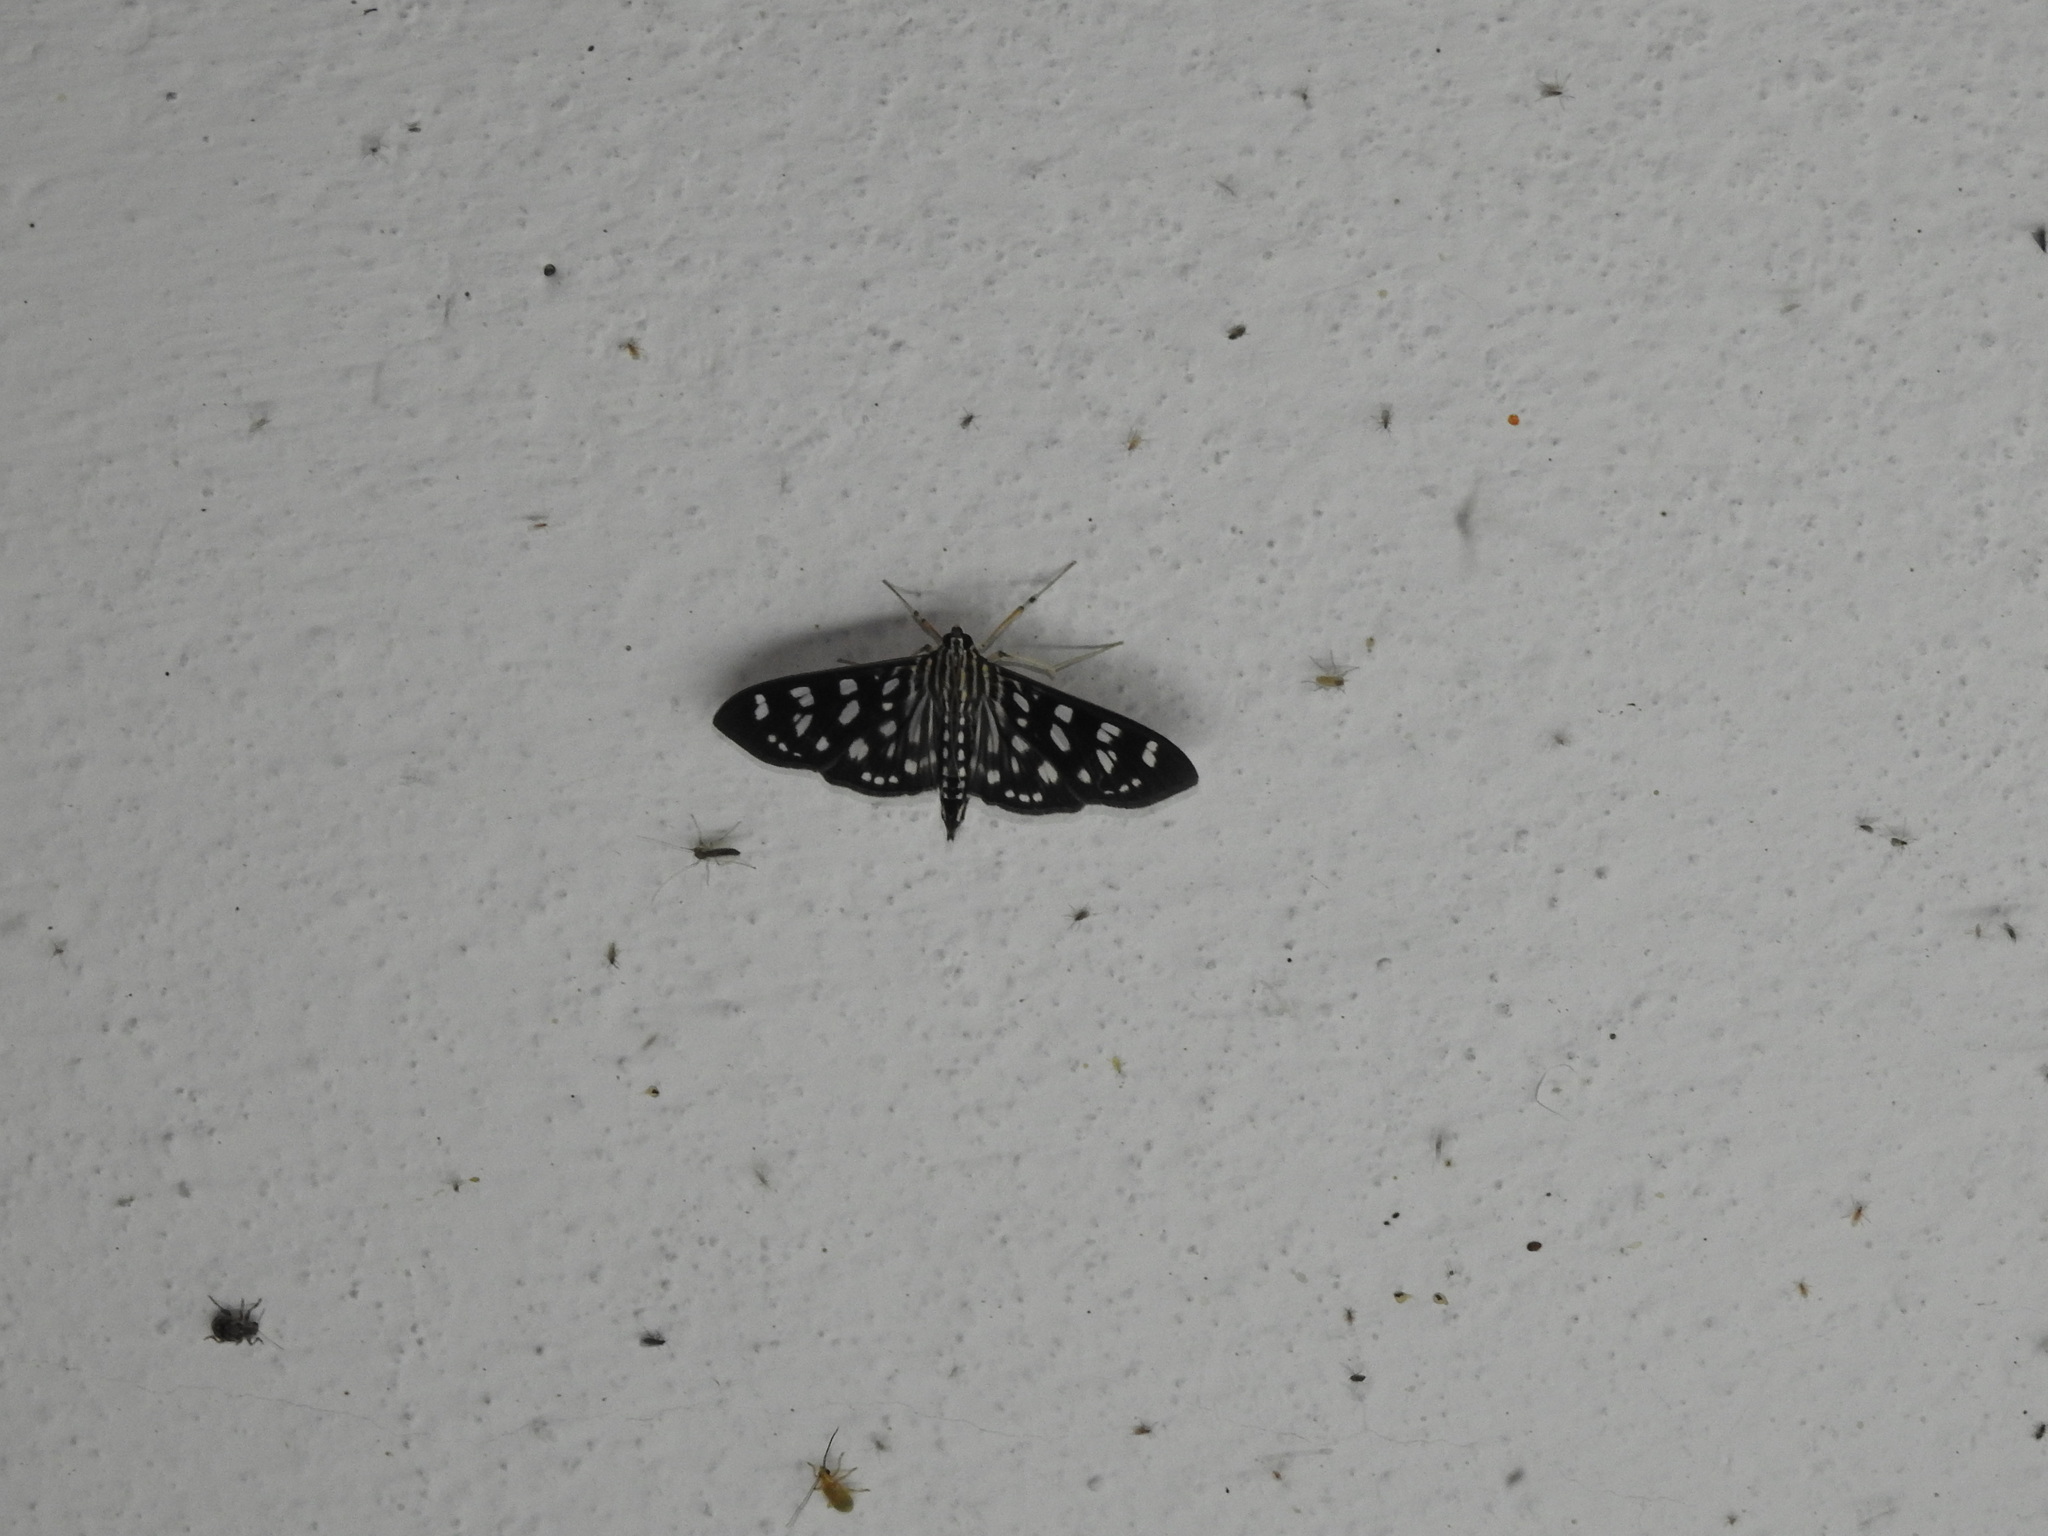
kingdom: Animalia
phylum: Arthropoda
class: Insecta
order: Lepidoptera
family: Crambidae
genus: Pygospila
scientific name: Pygospila tyres
